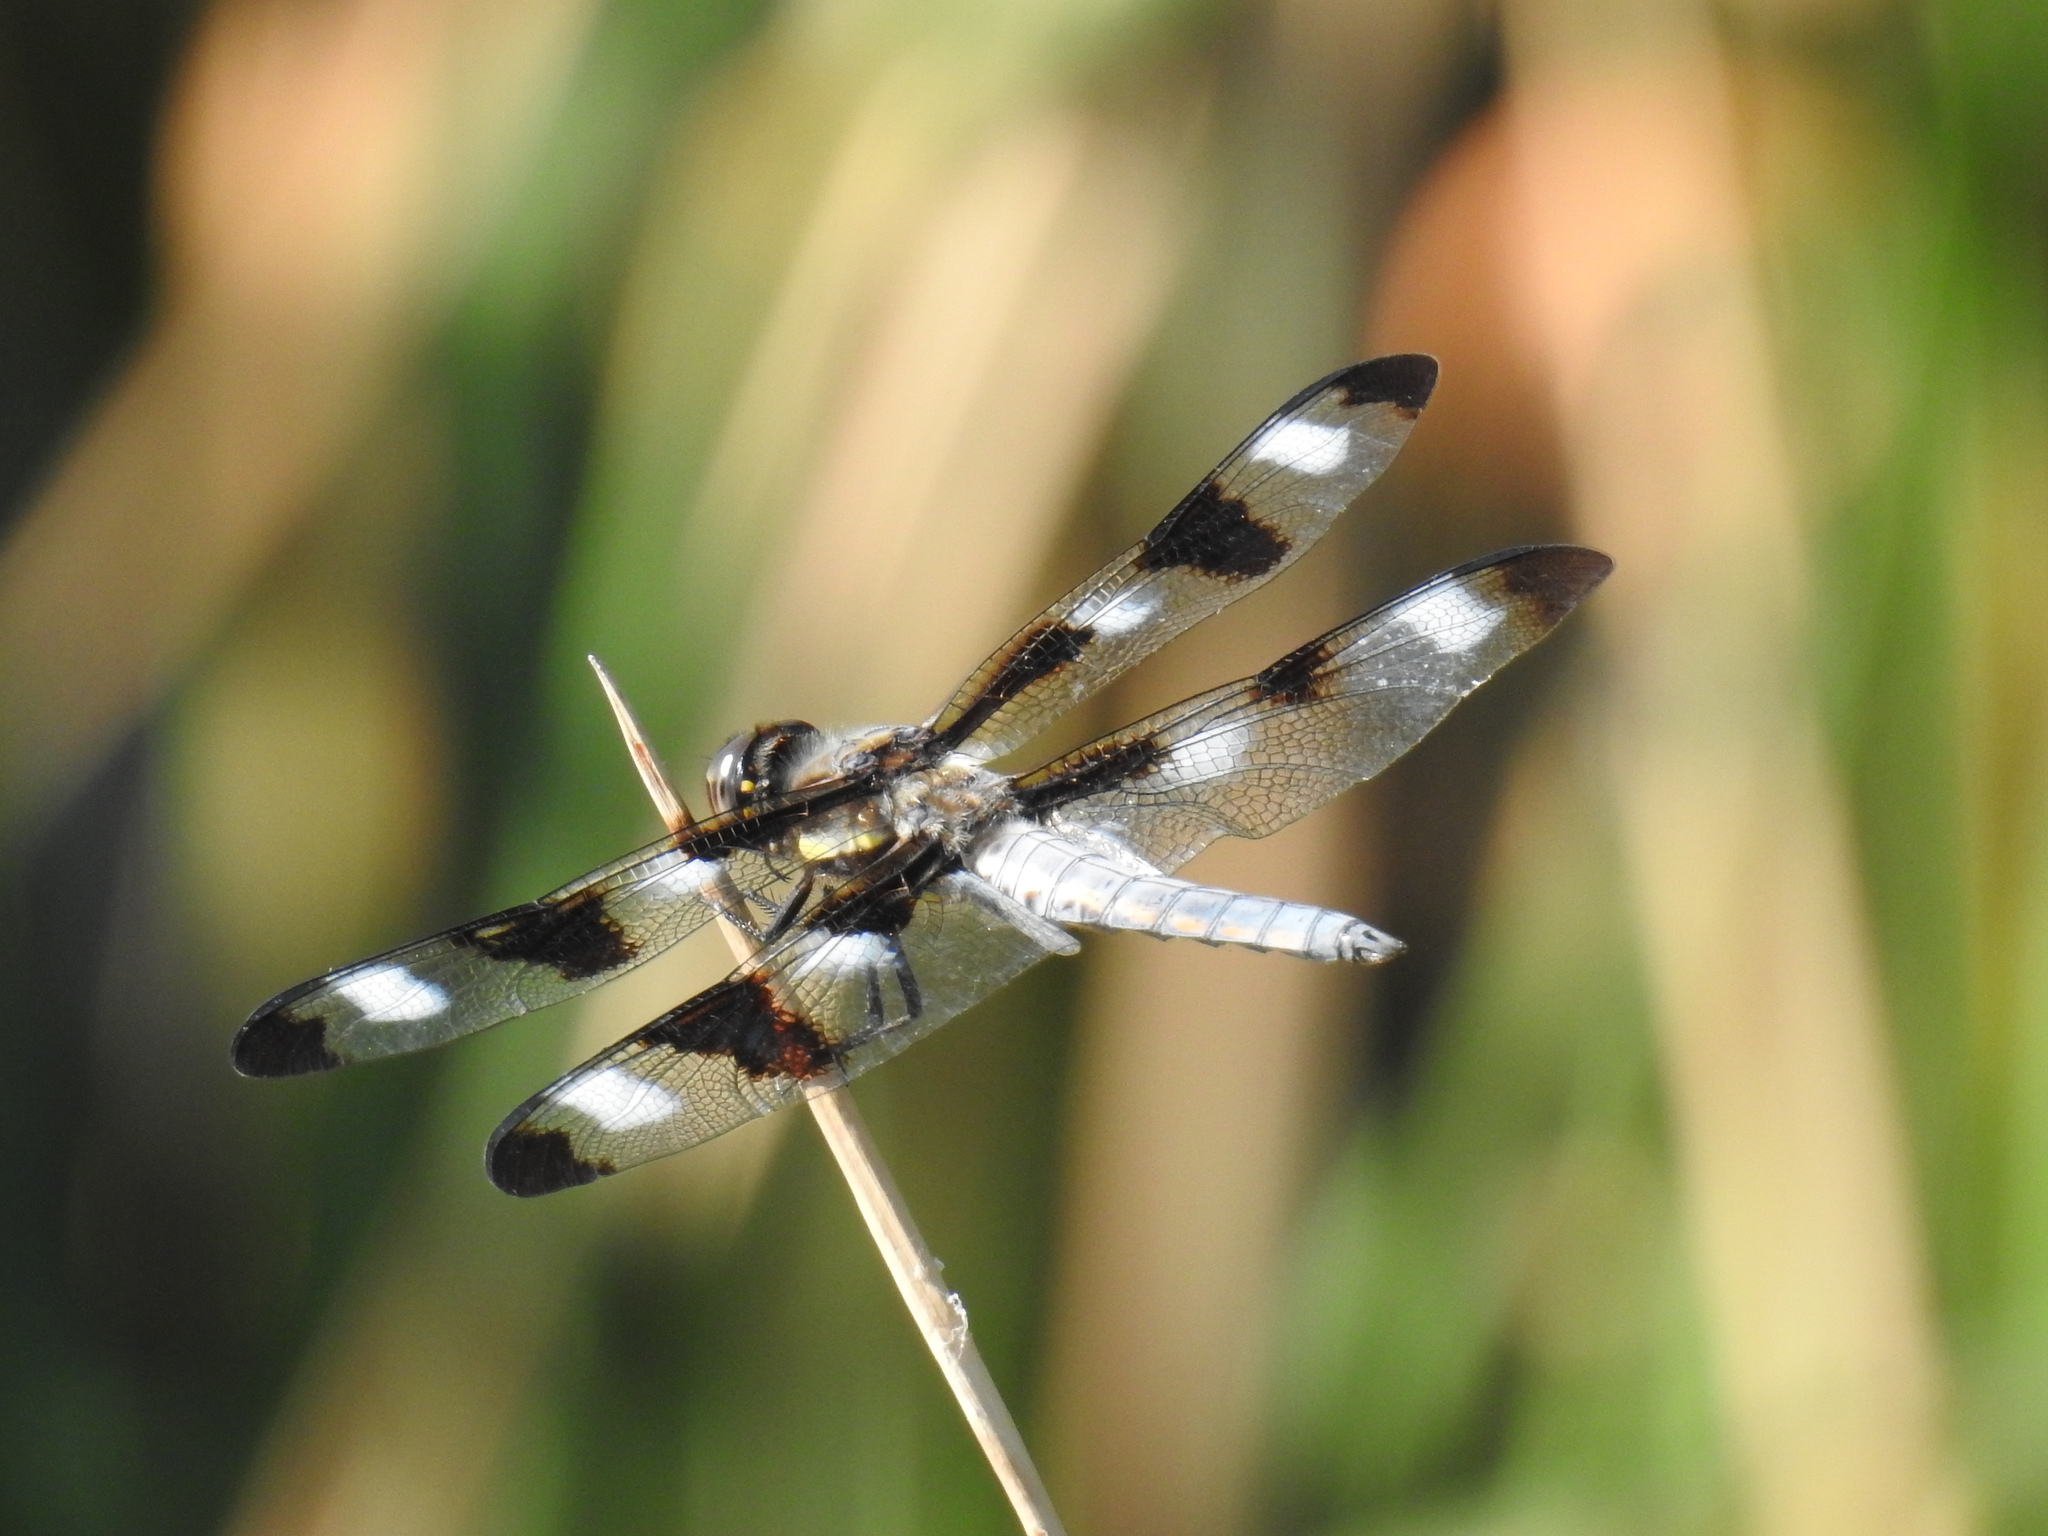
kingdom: Animalia
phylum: Arthropoda
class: Insecta
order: Odonata
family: Libellulidae
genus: Libellula
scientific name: Libellula pulchella
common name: Twelve-spotted skimmer
